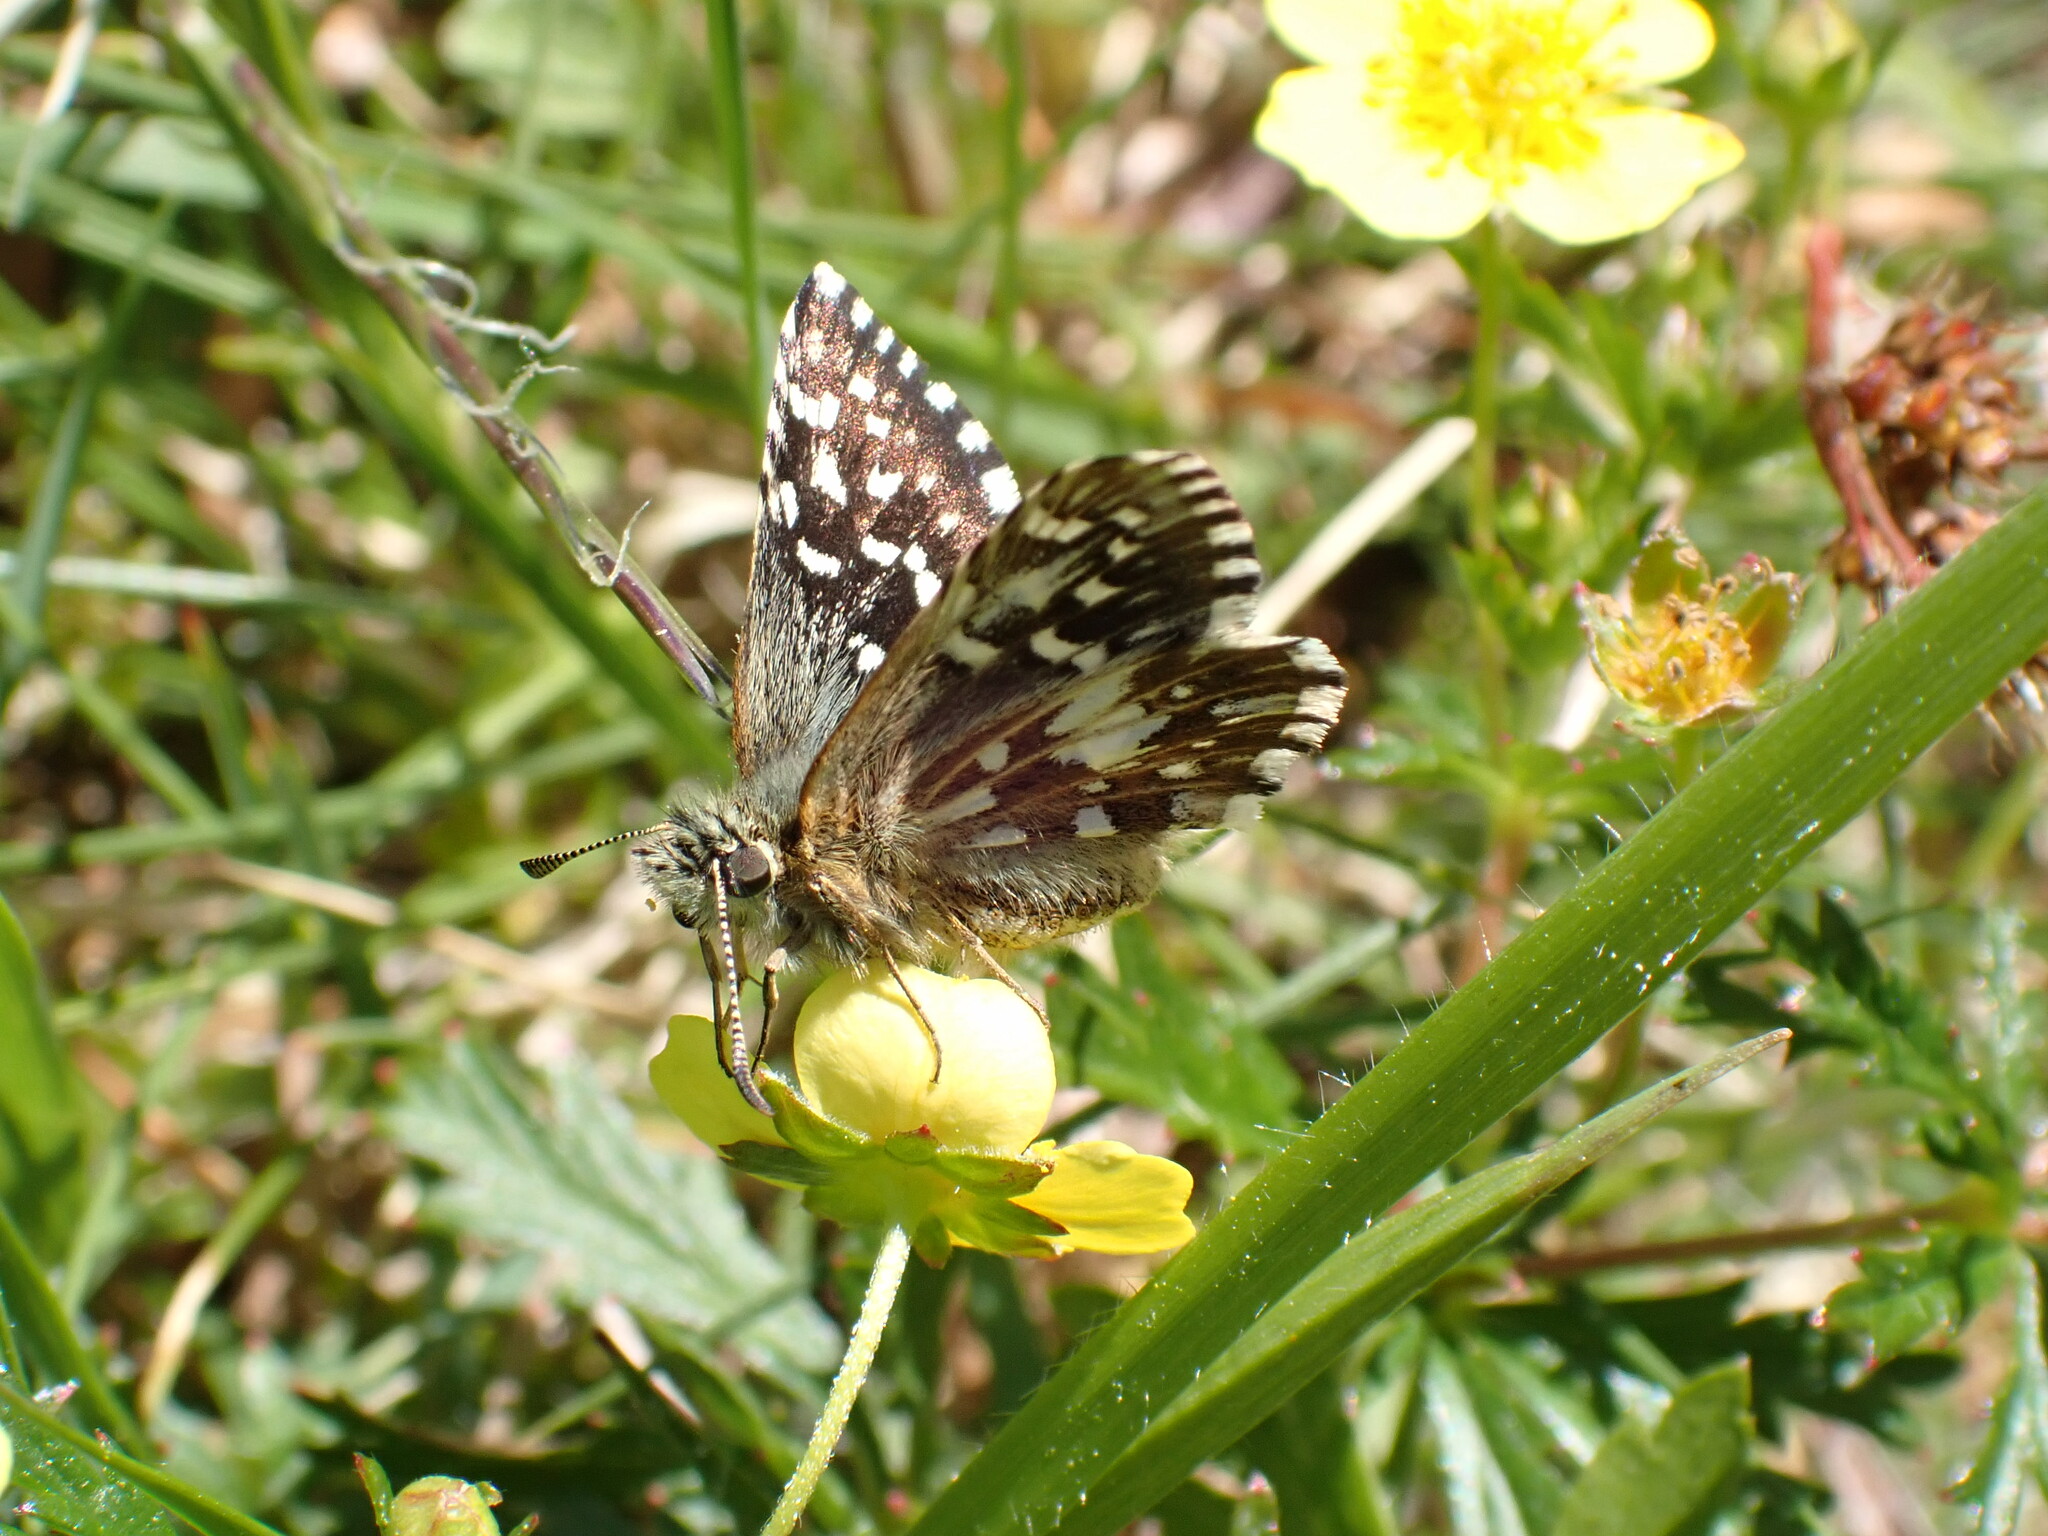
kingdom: Animalia
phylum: Arthropoda
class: Insecta
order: Lepidoptera
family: Hesperiidae
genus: Pyrgus
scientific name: Pyrgus malvae
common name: Grizzled skipper
